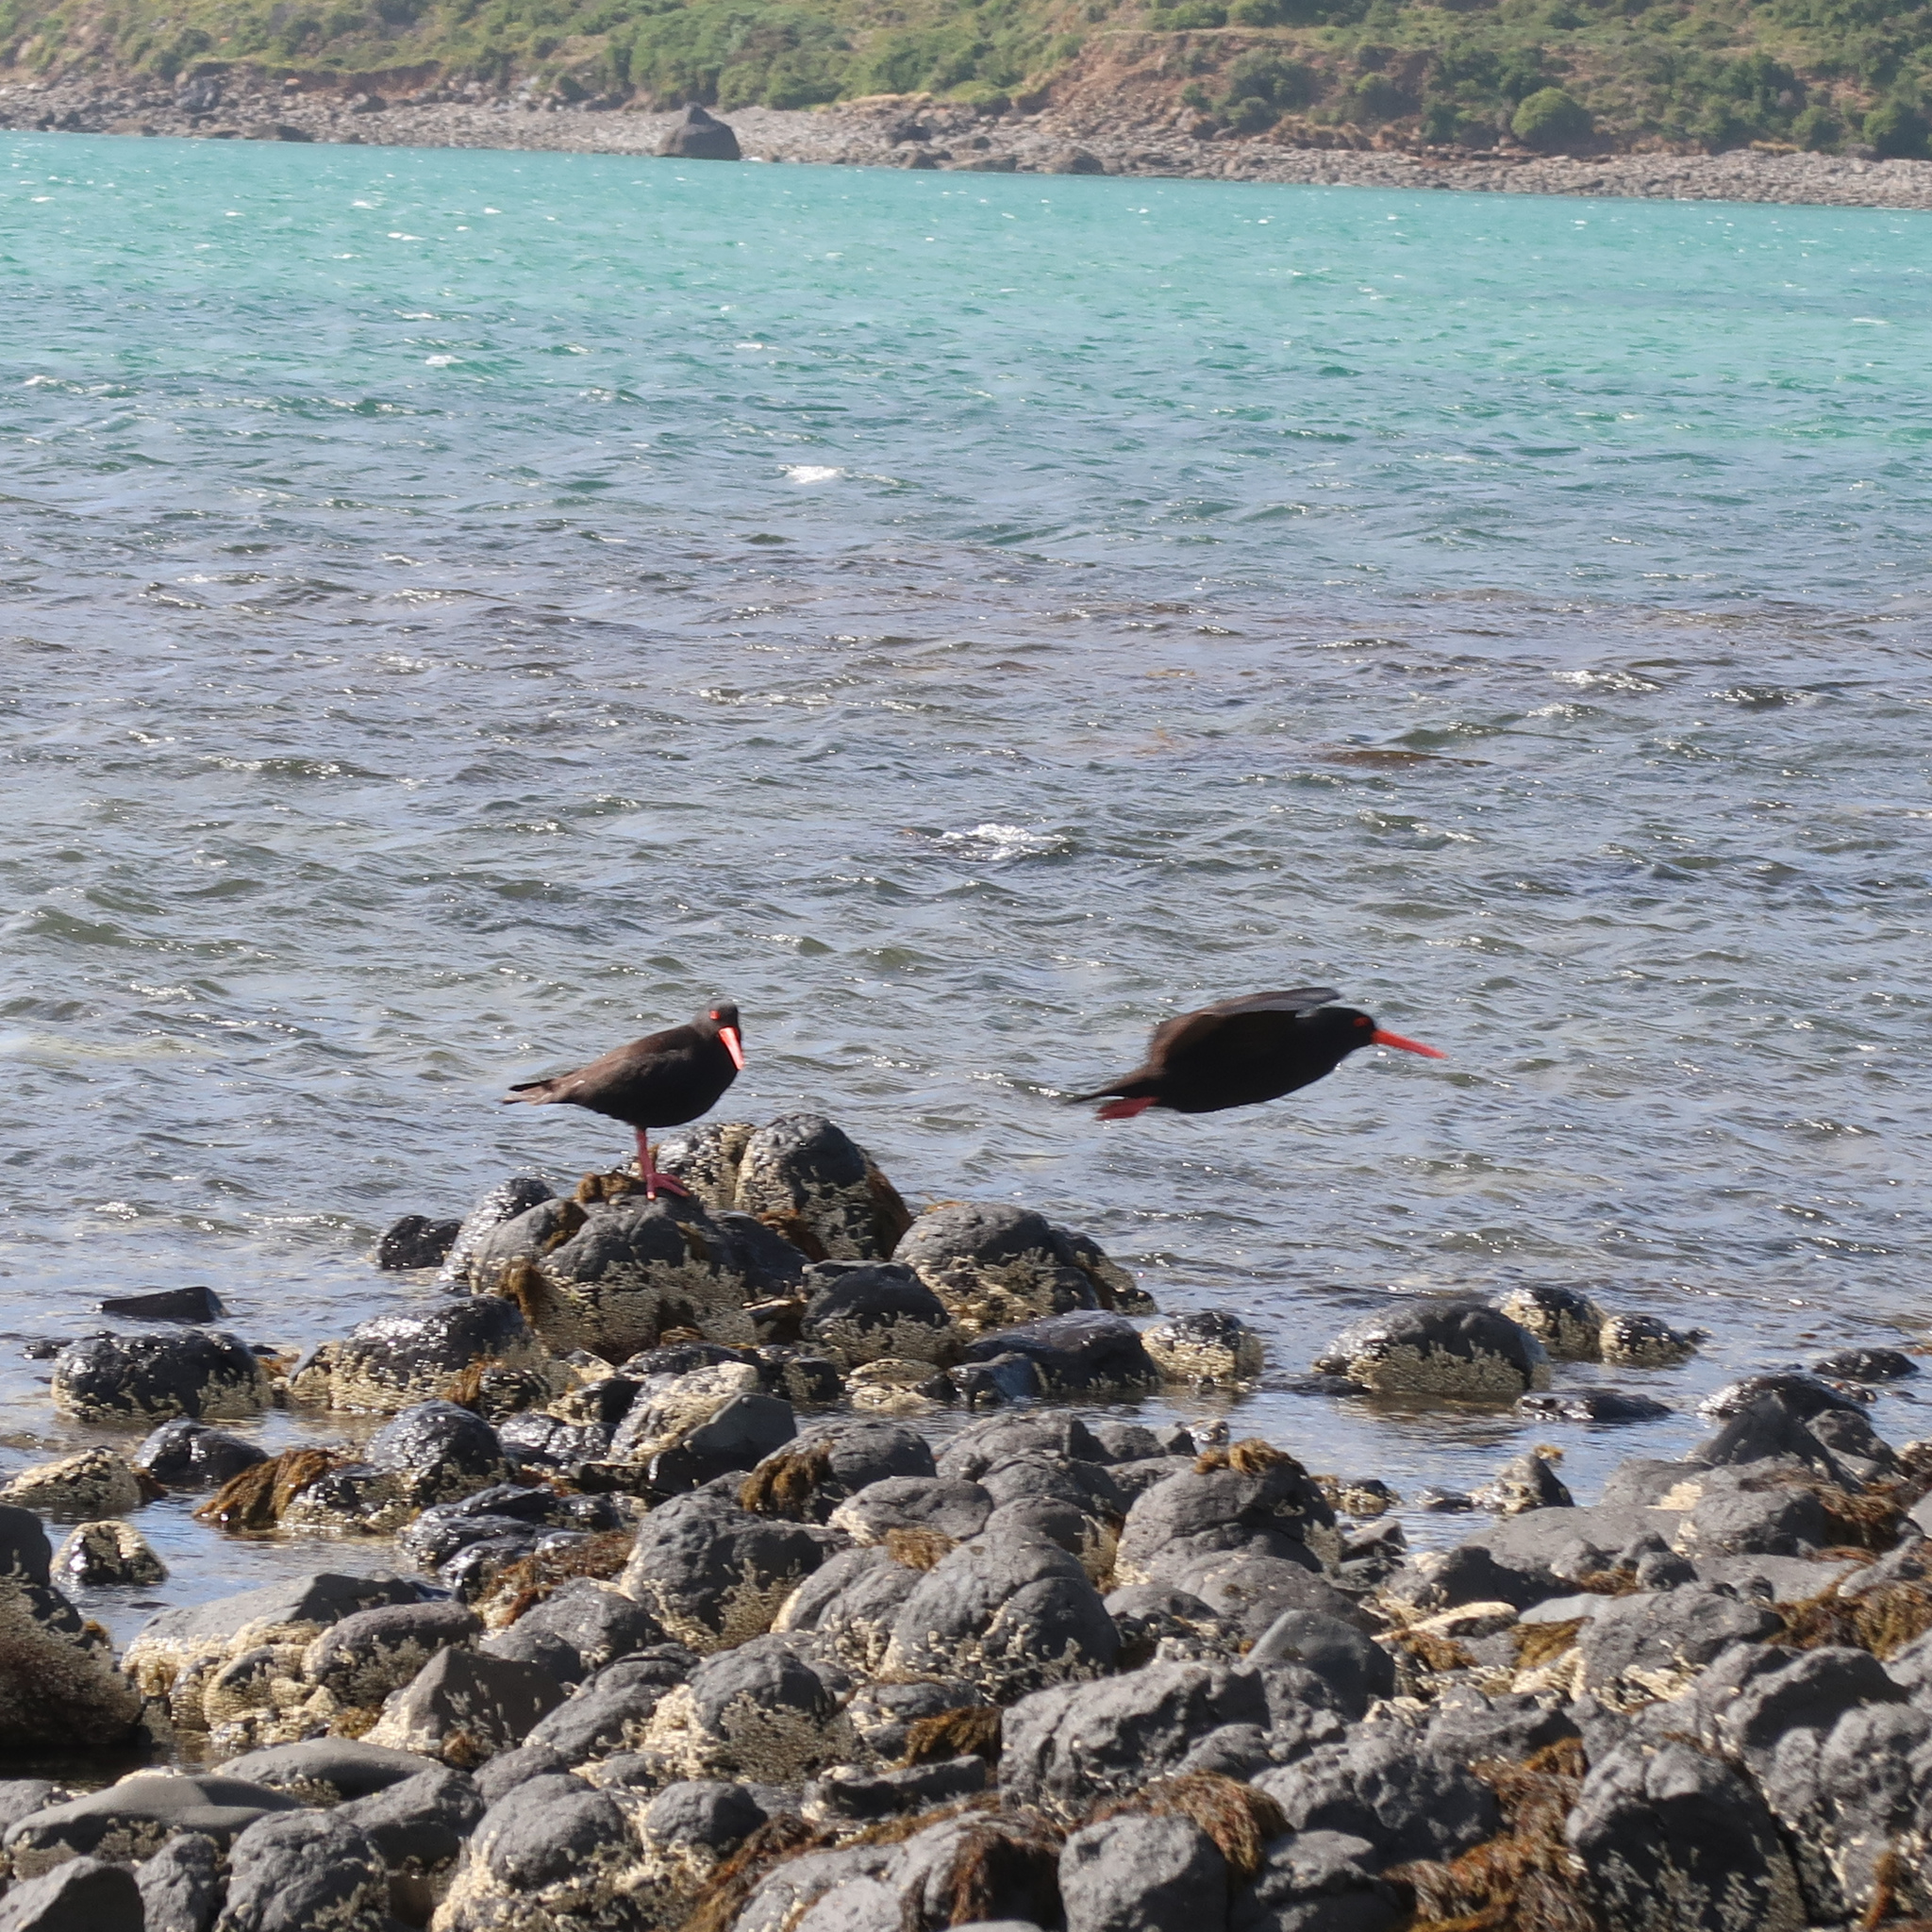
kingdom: Animalia
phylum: Chordata
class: Aves
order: Charadriiformes
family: Haematopodidae
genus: Haematopus
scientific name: Haematopus fuliginosus
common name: Sooty oystercatcher
